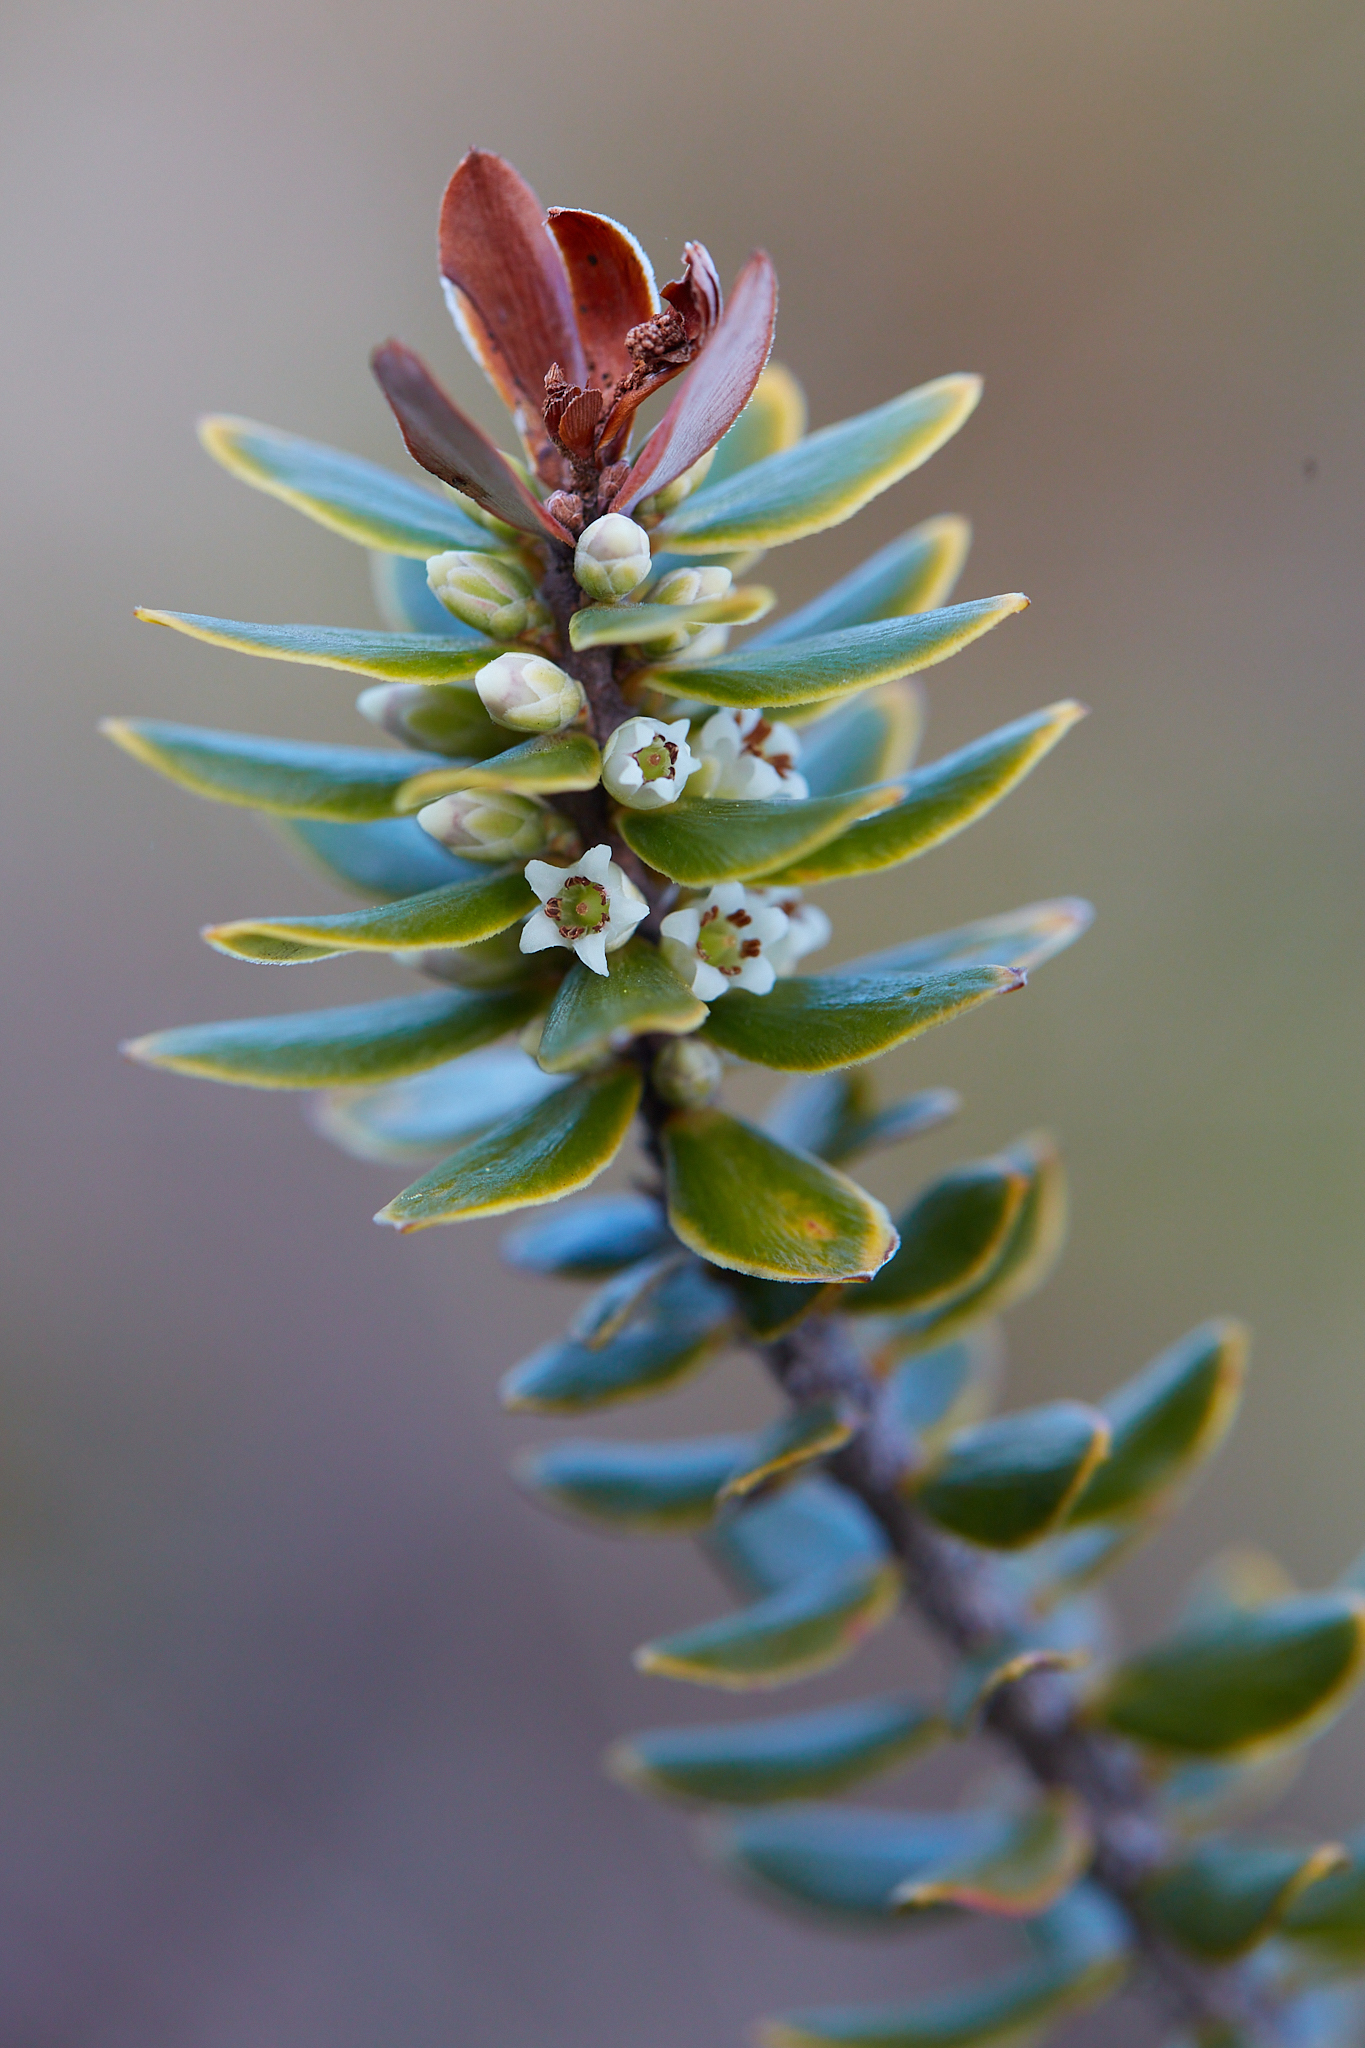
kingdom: Plantae
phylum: Tracheophyta
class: Magnoliopsida
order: Ericales
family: Ericaceae
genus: Leptecophylla
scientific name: Leptecophylla tameiameiae
